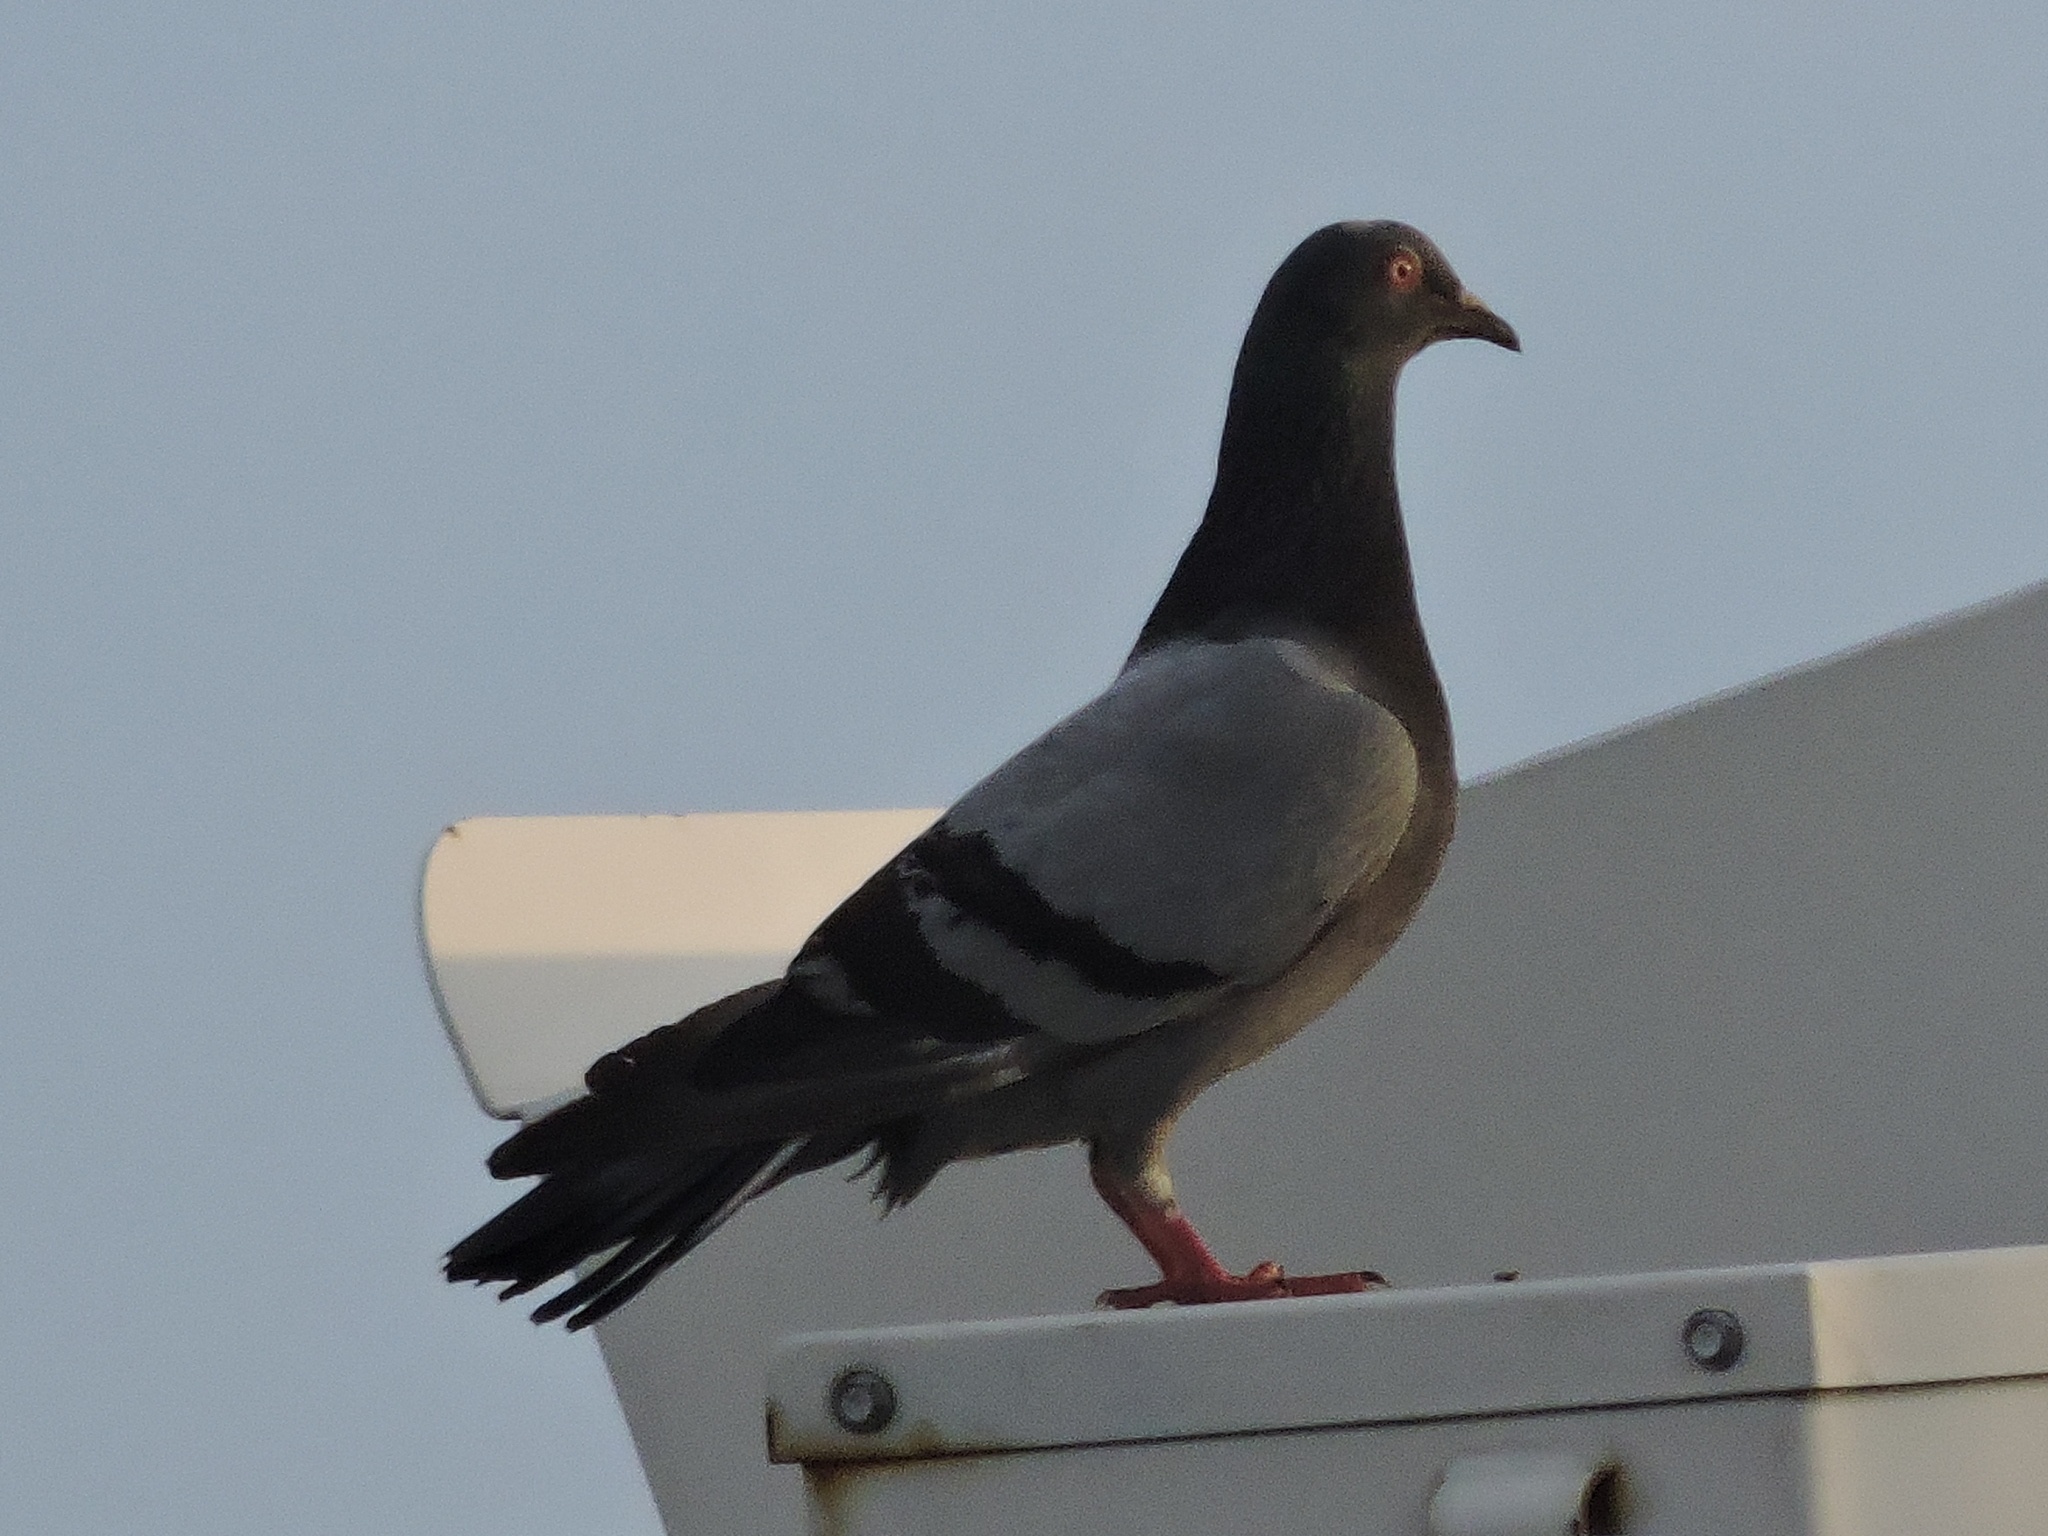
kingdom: Animalia
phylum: Chordata
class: Aves
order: Columbiformes
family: Columbidae
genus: Columba
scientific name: Columba livia
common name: Rock pigeon
